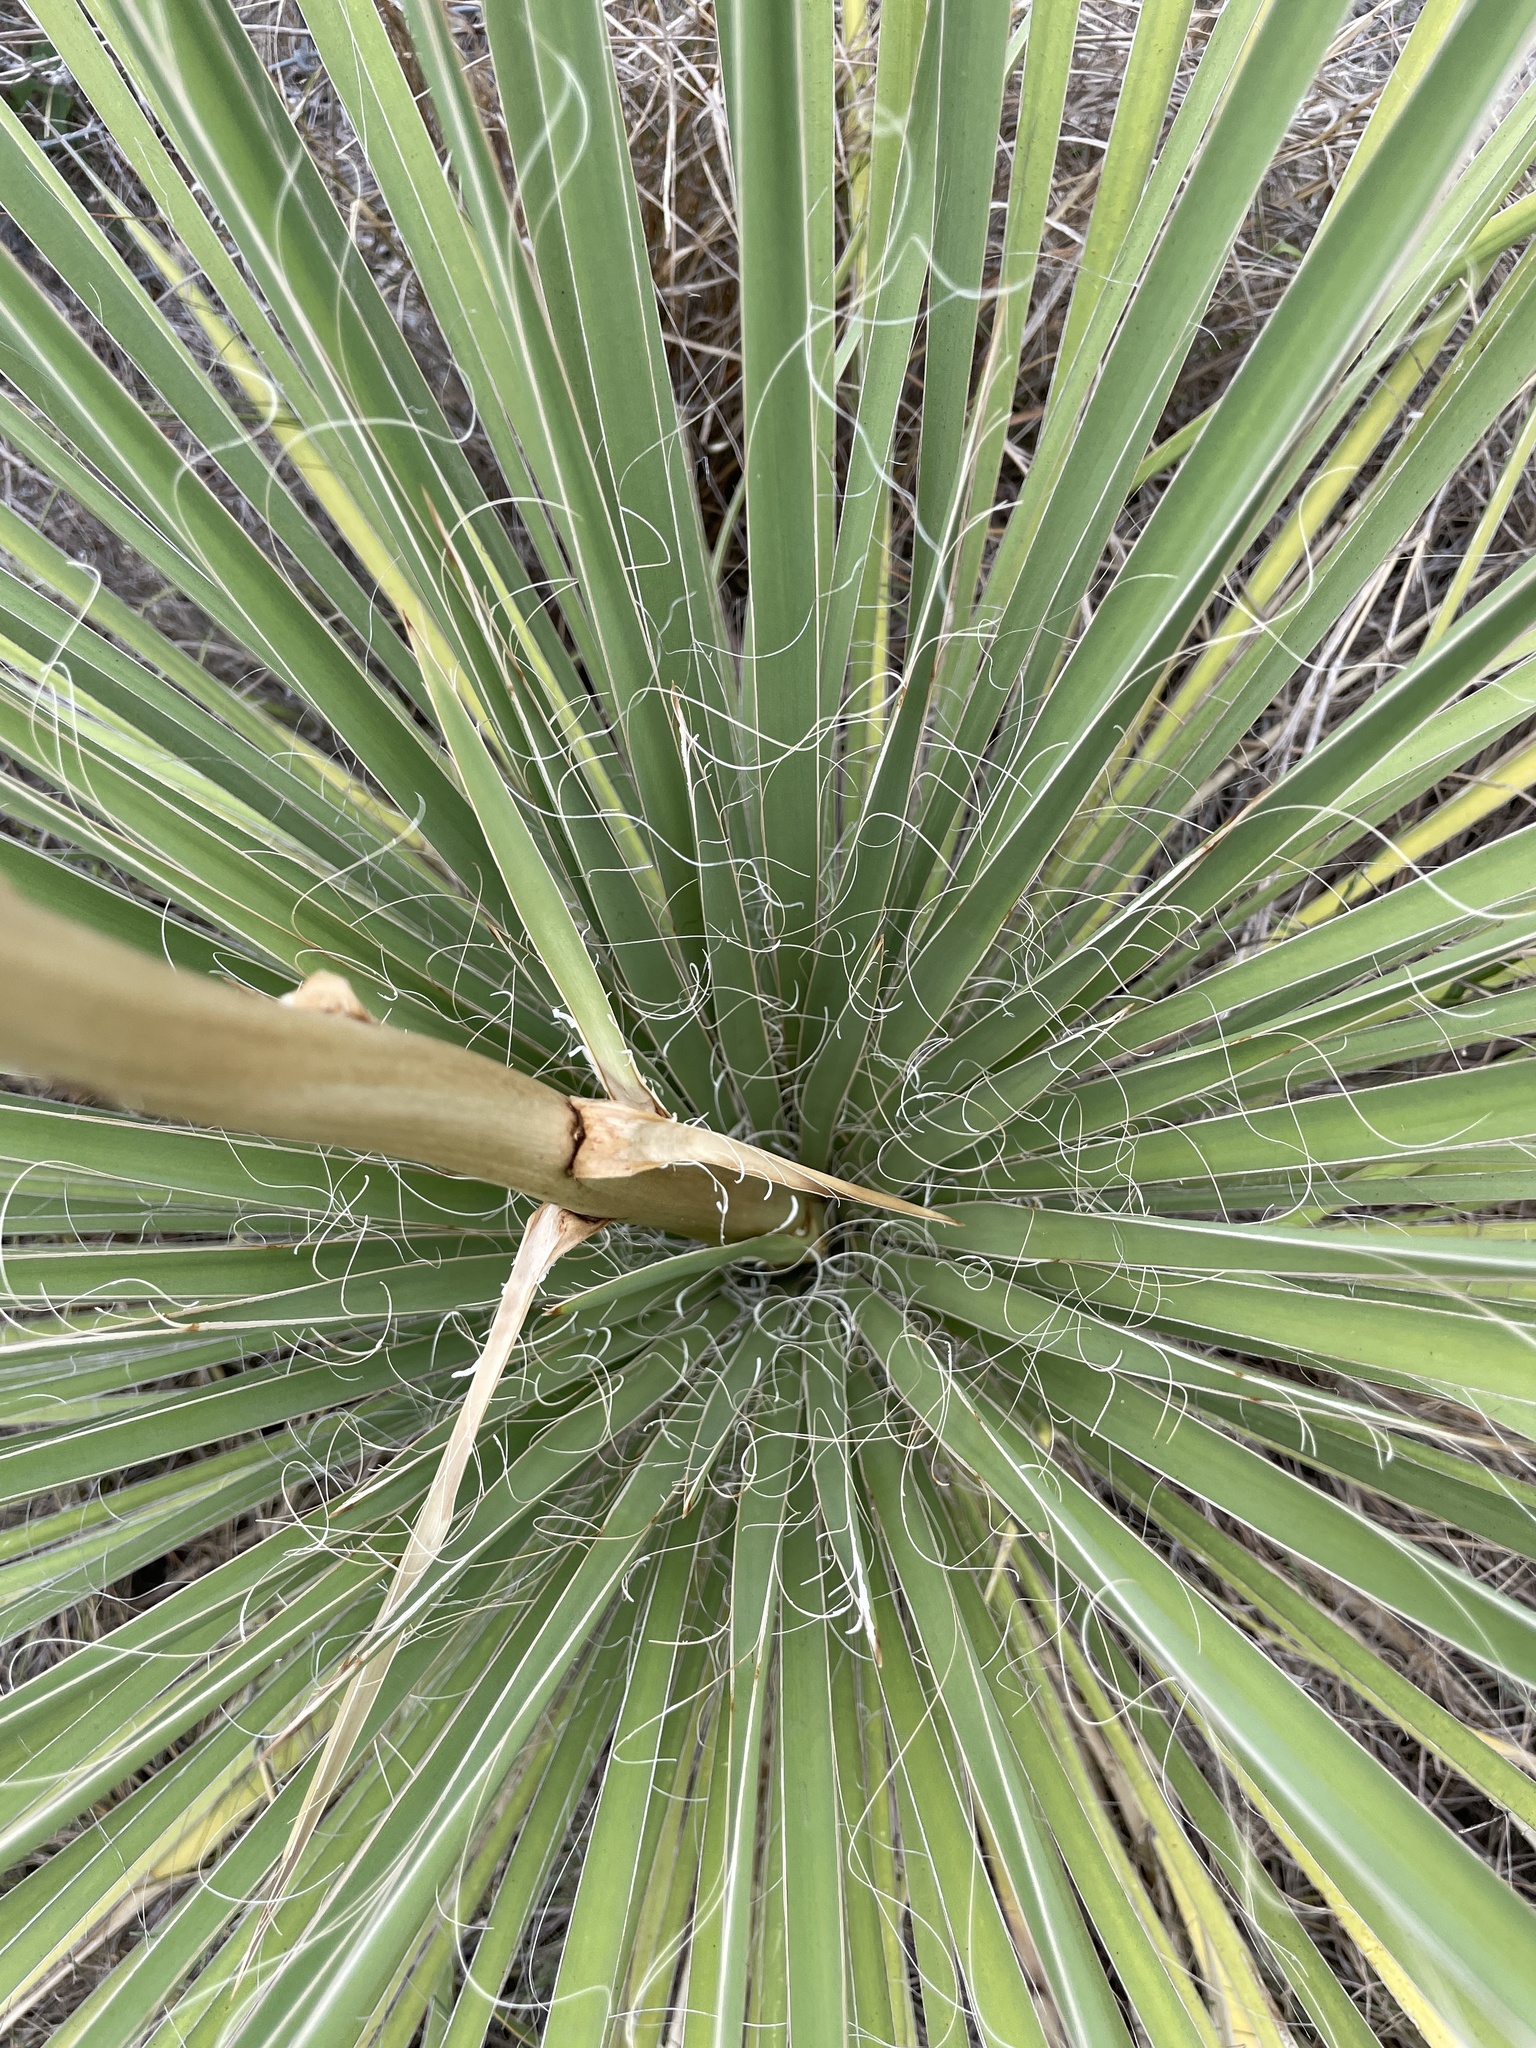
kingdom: Plantae
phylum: Tracheophyta
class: Liliopsida
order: Asparagales
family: Asparagaceae
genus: Yucca
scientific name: Yucca constricta
